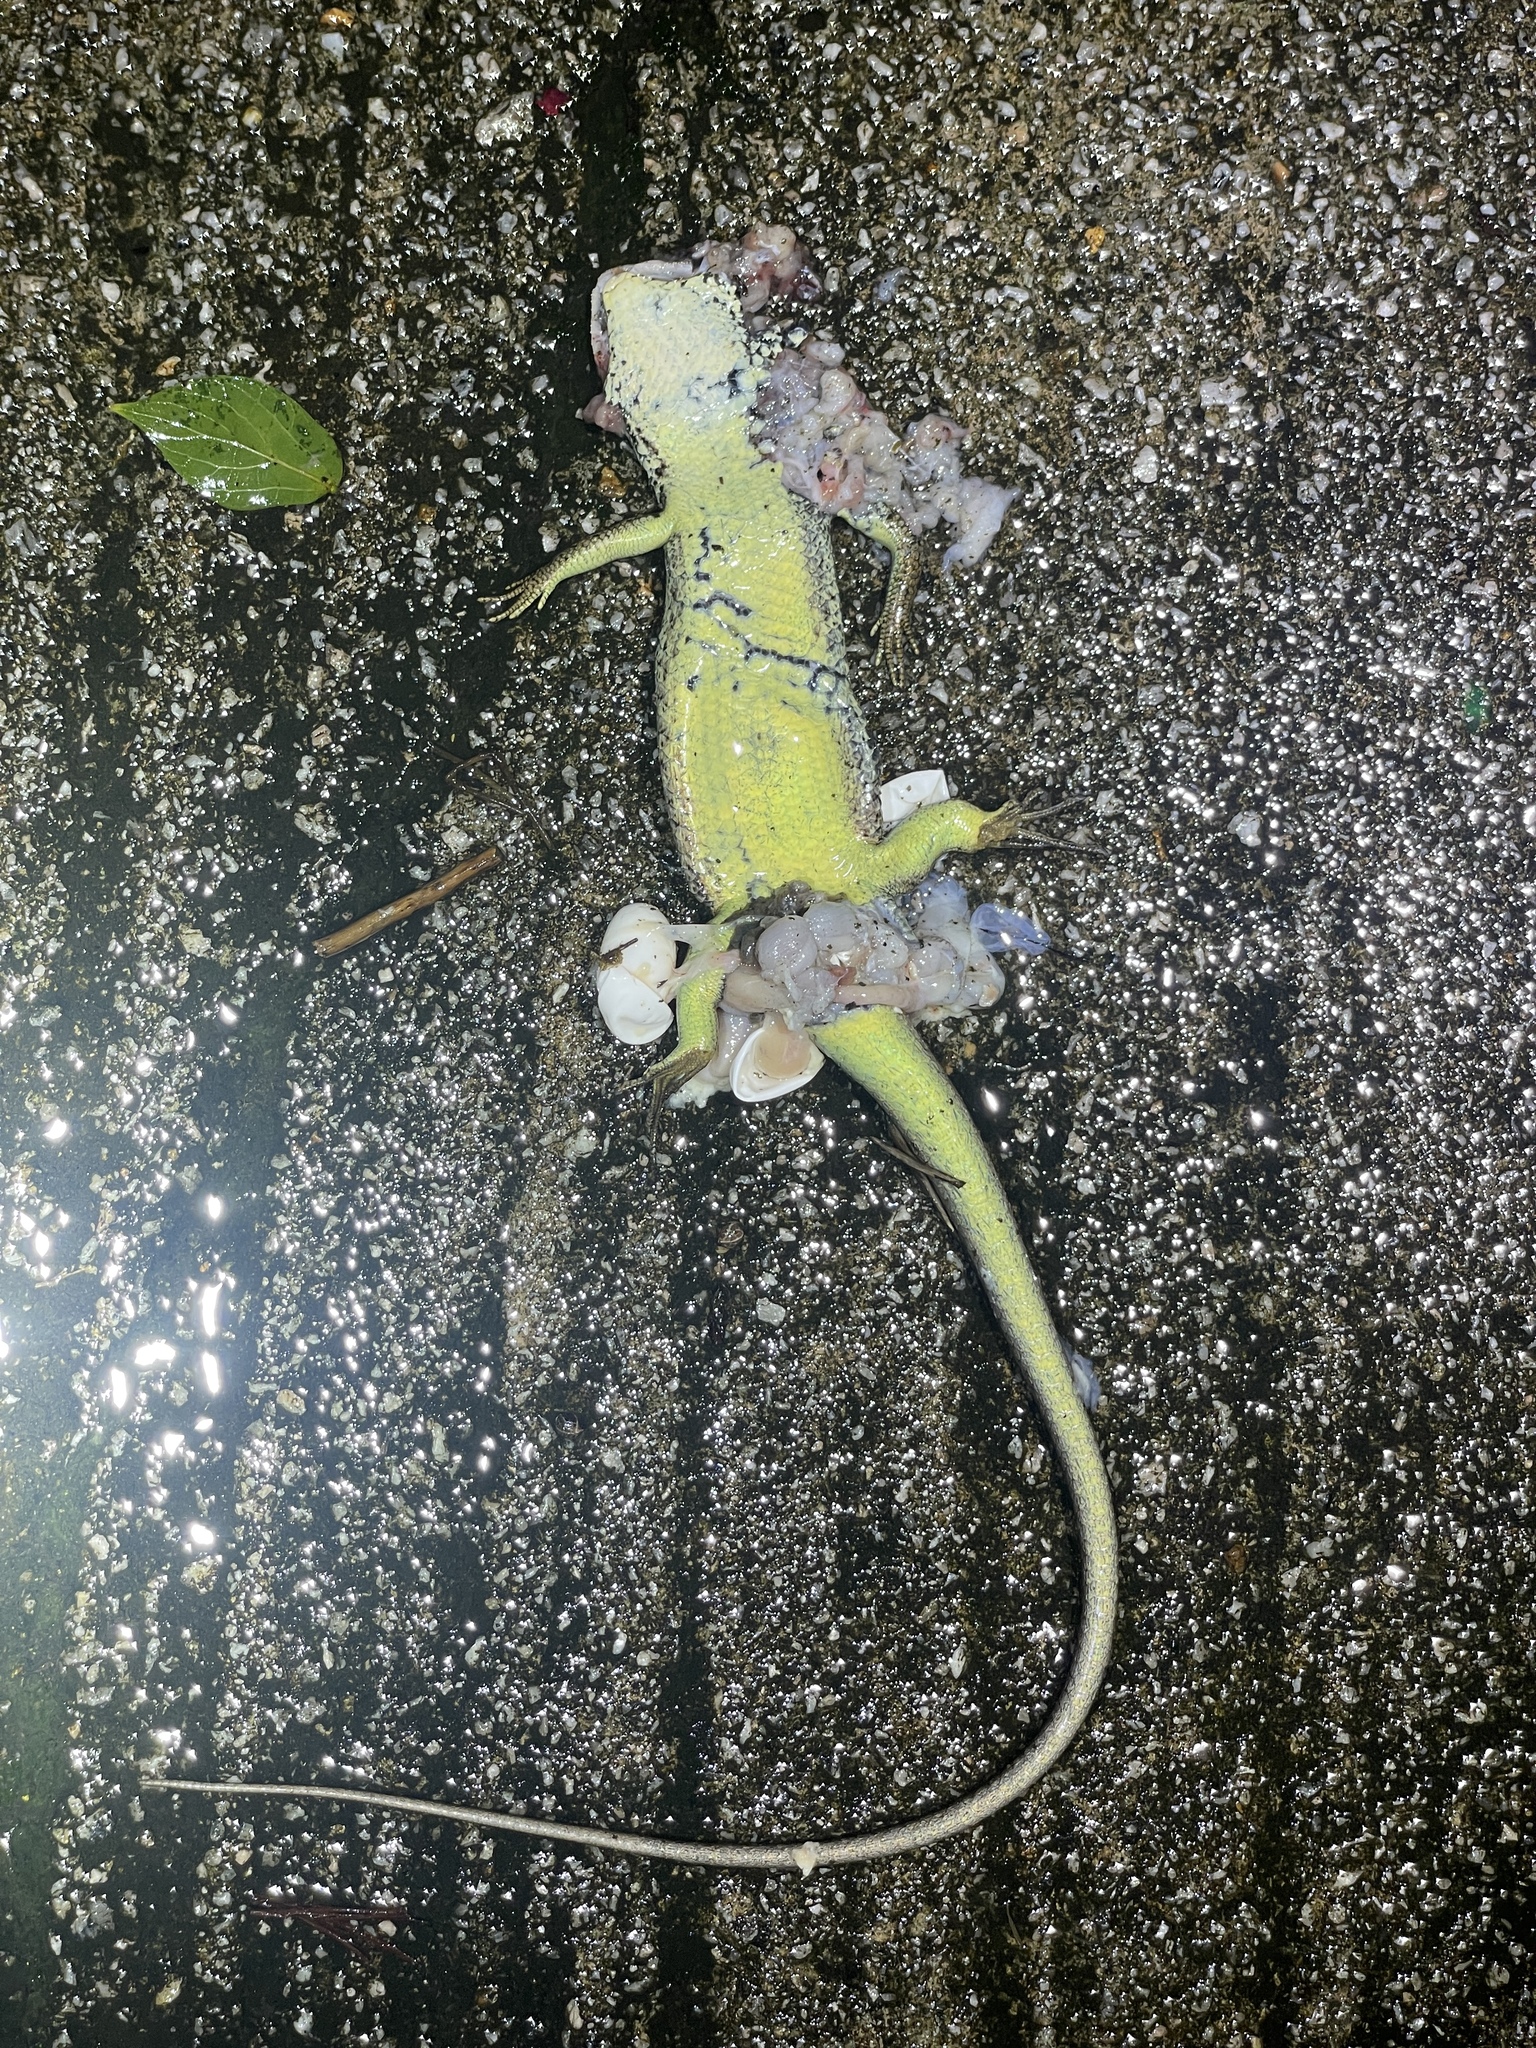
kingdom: Animalia
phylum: Chordata
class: Squamata
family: Scincidae
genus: Eutropis
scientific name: Eutropis longicaudata
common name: Long-tailed sun skink
